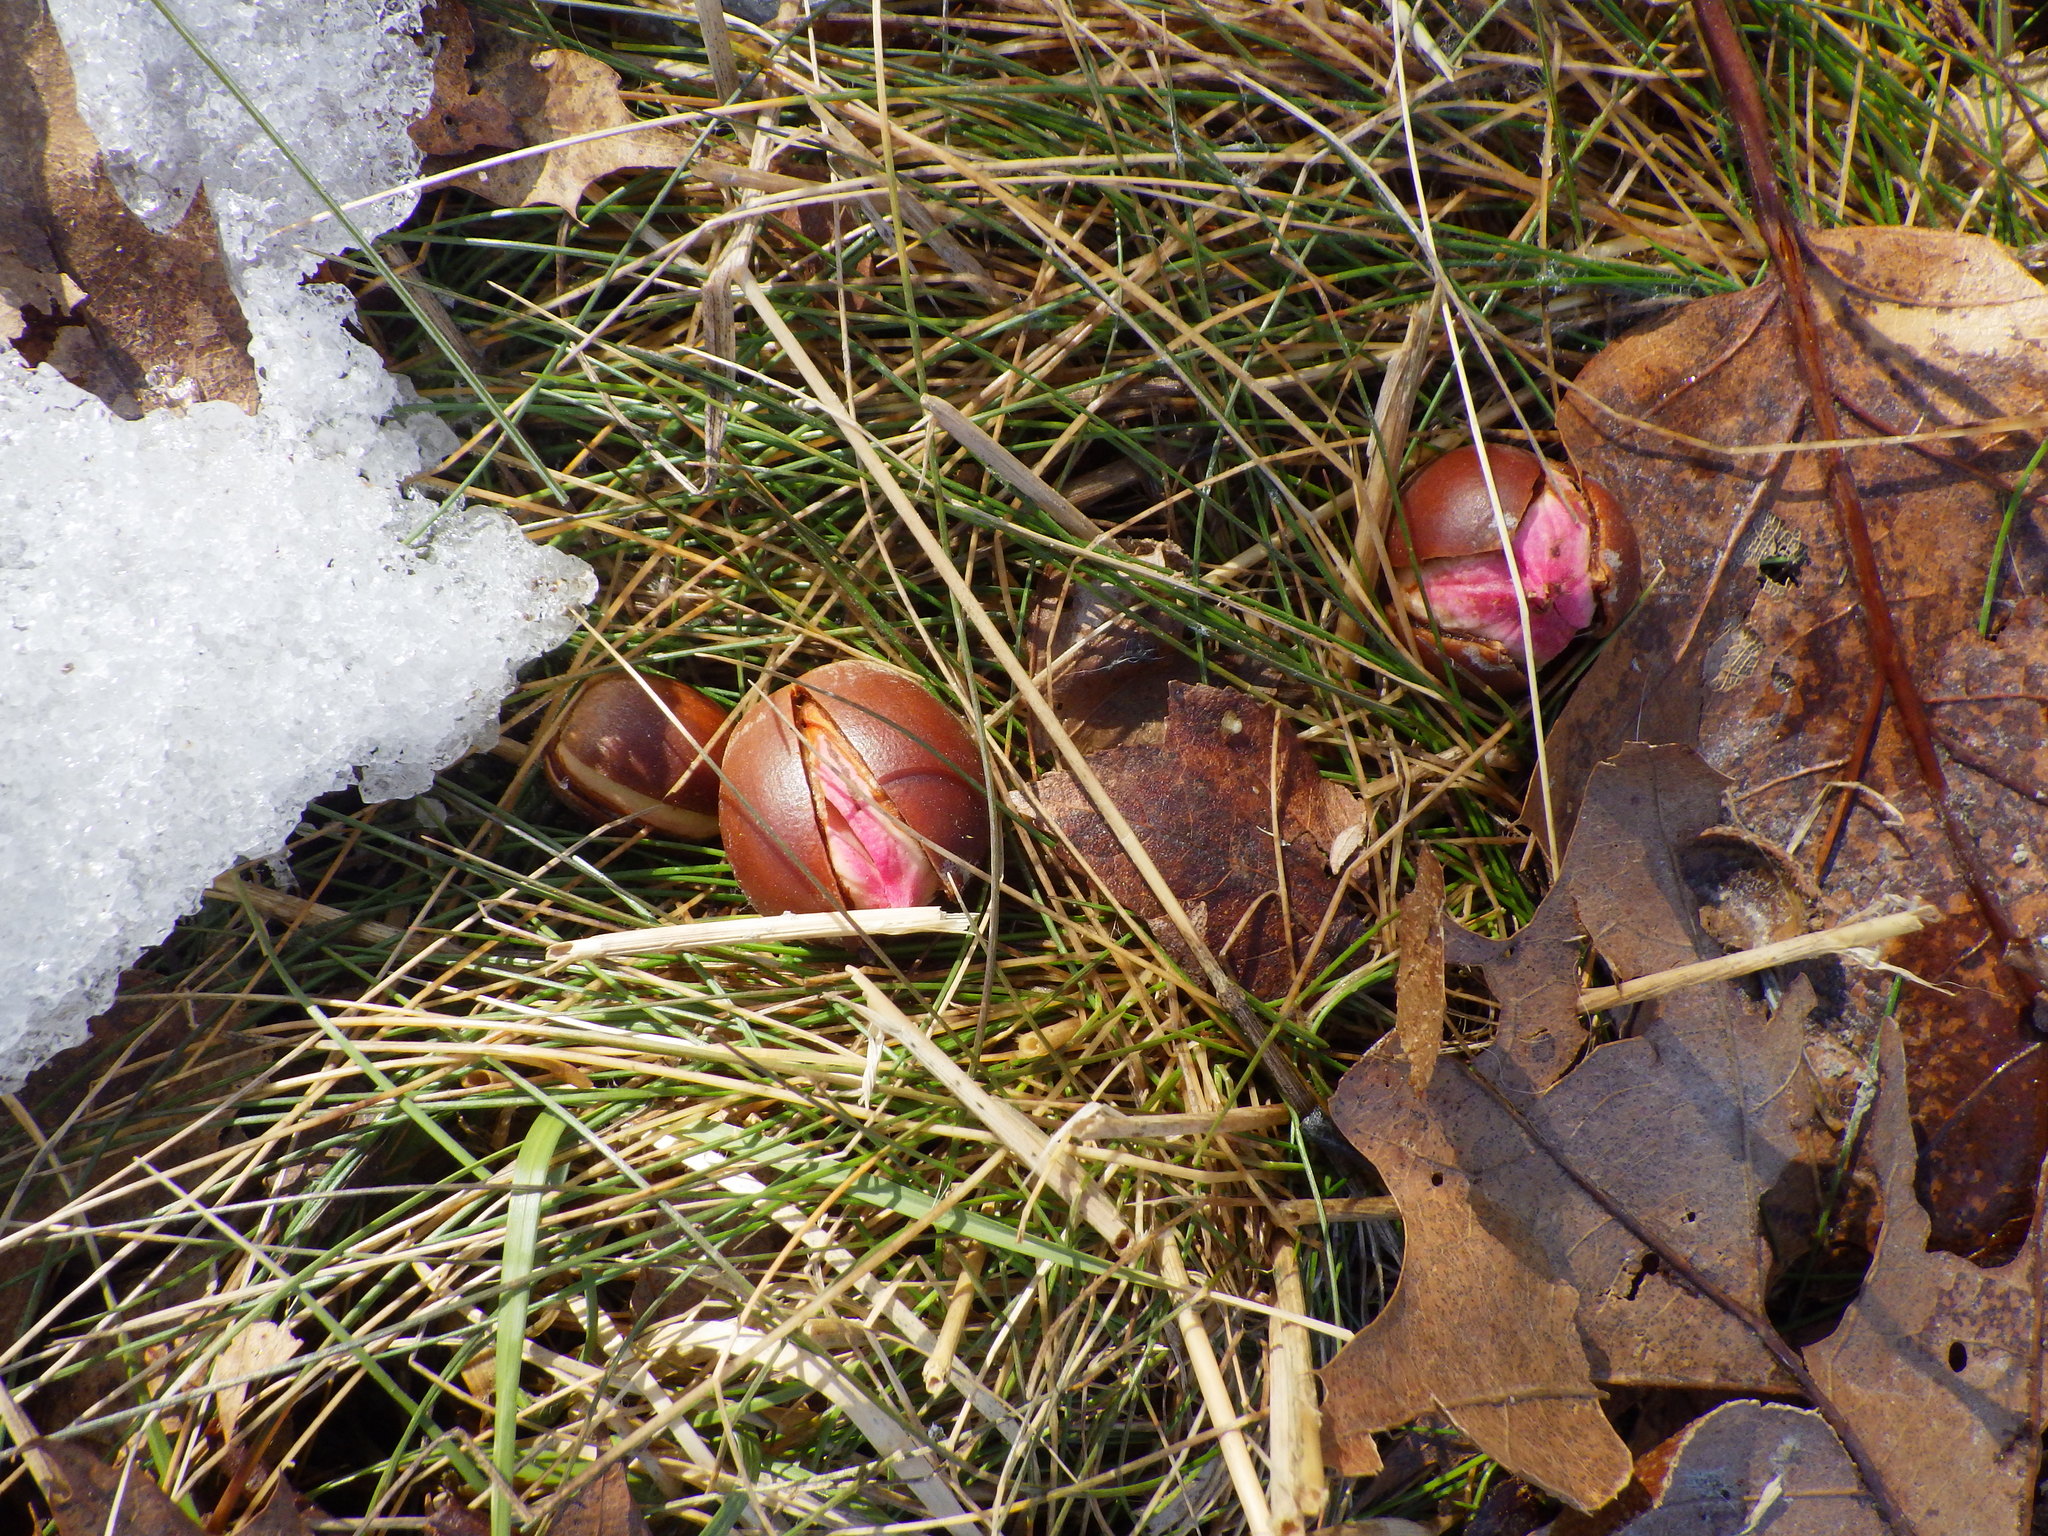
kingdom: Plantae
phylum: Tracheophyta
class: Magnoliopsida
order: Fagales
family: Fagaceae
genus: Quercus
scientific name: Quercus rubra
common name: Red oak
